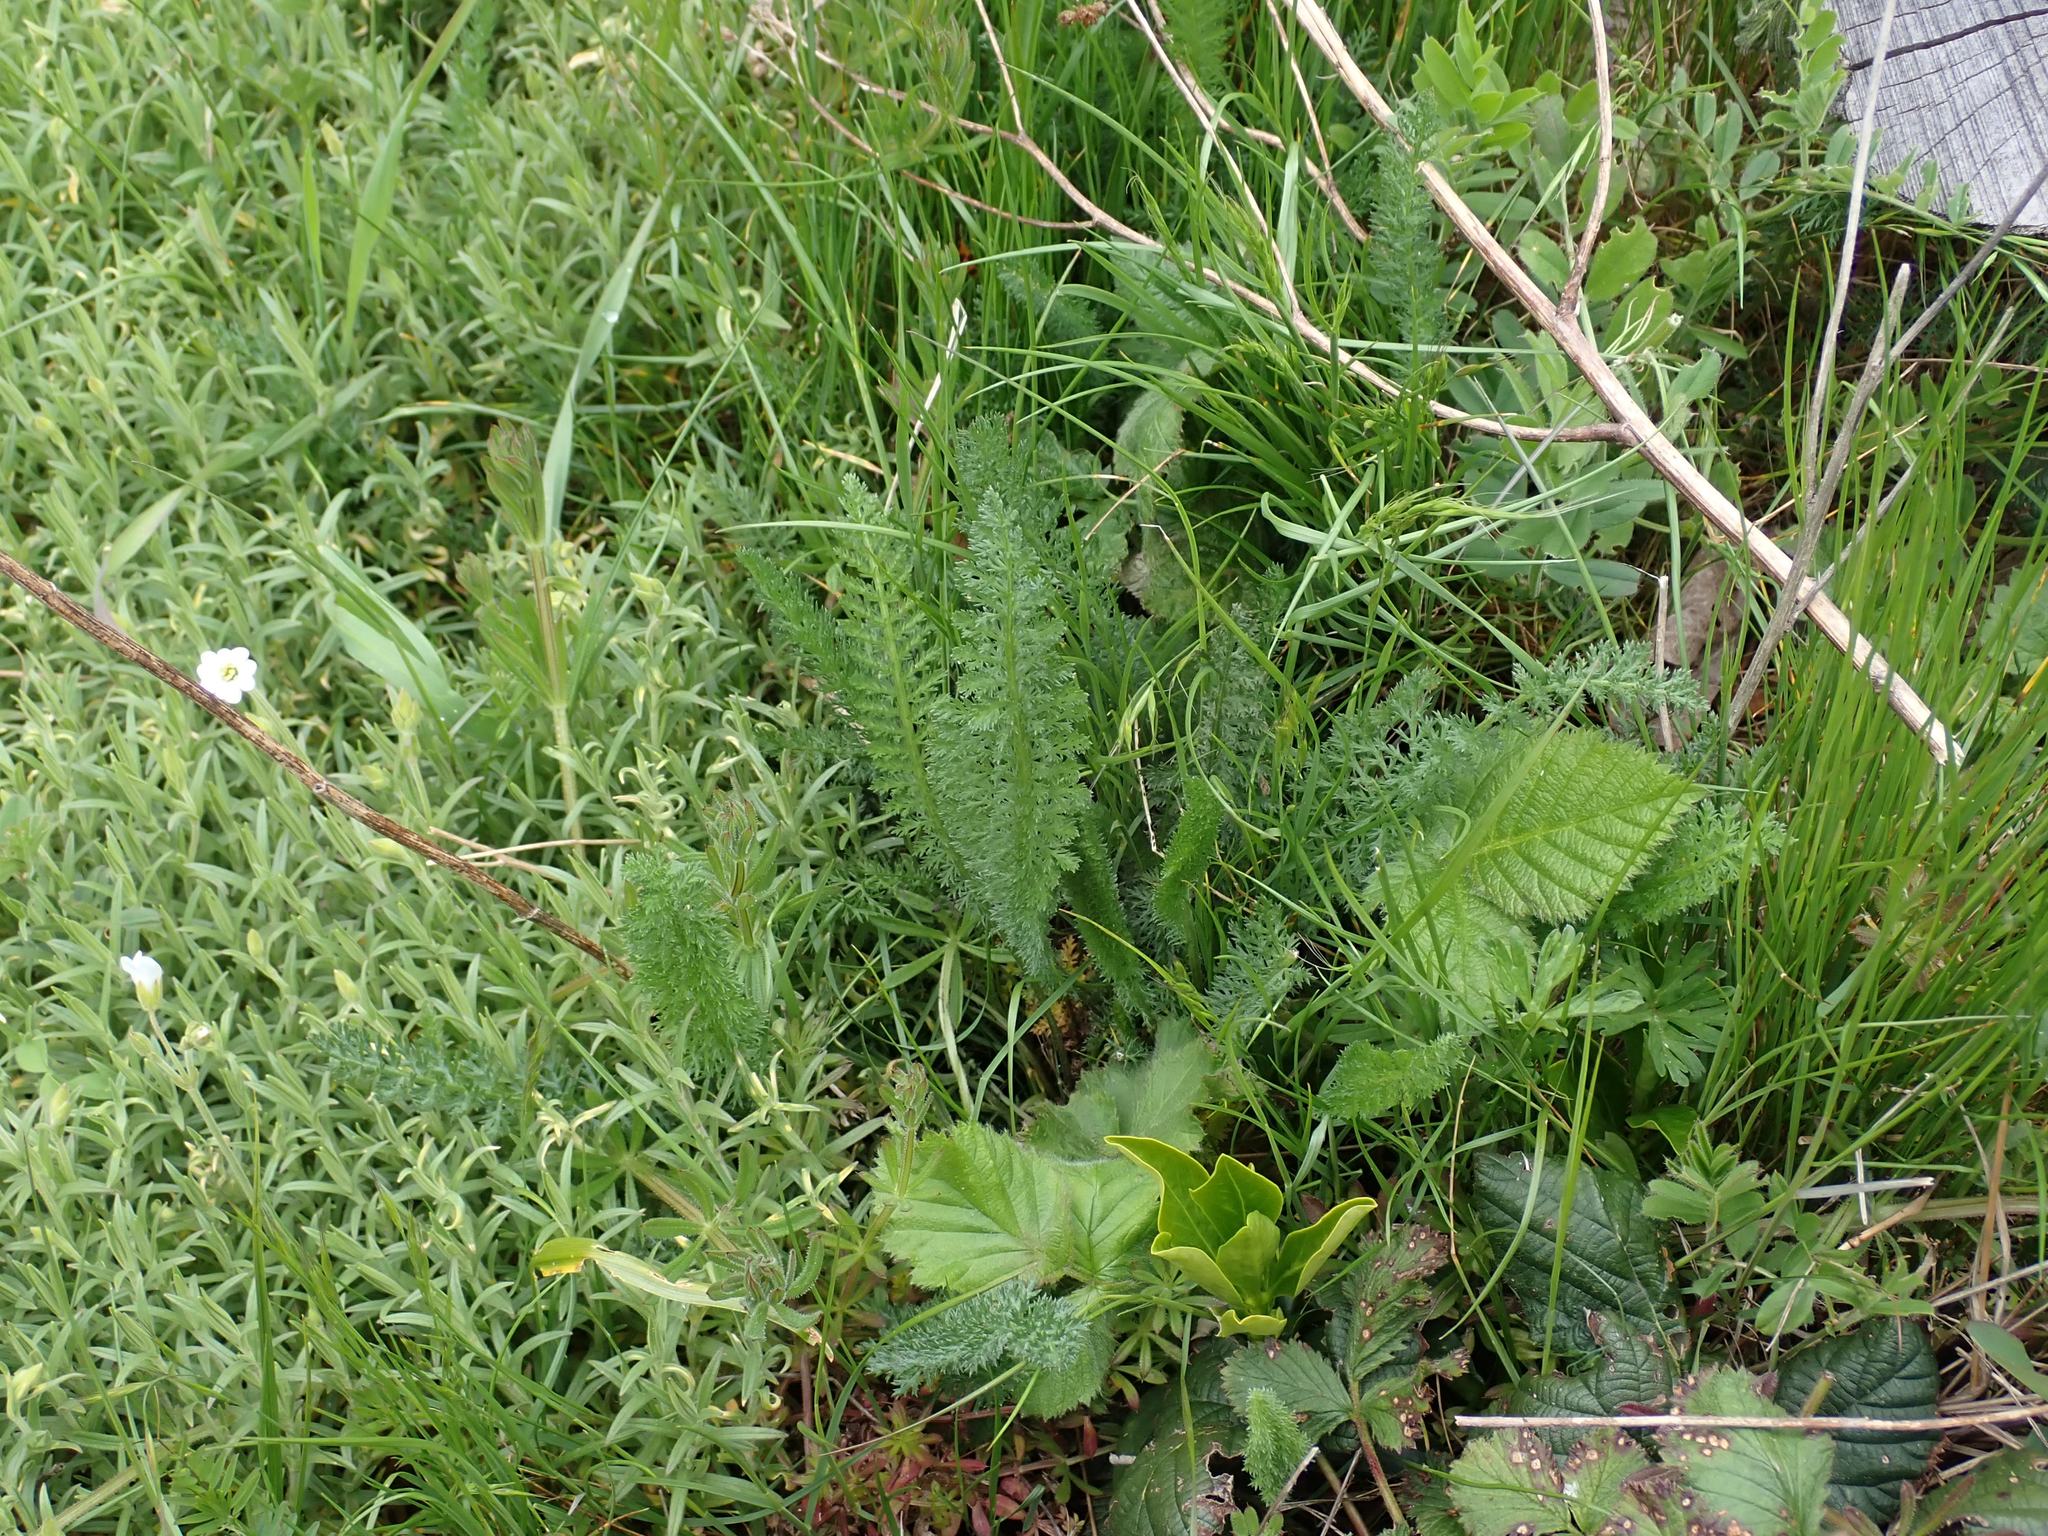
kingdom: Plantae
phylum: Tracheophyta
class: Magnoliopsida
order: Asterales
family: Asteraceae
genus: Achillea
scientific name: Achillea millefolium
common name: Yarrow
